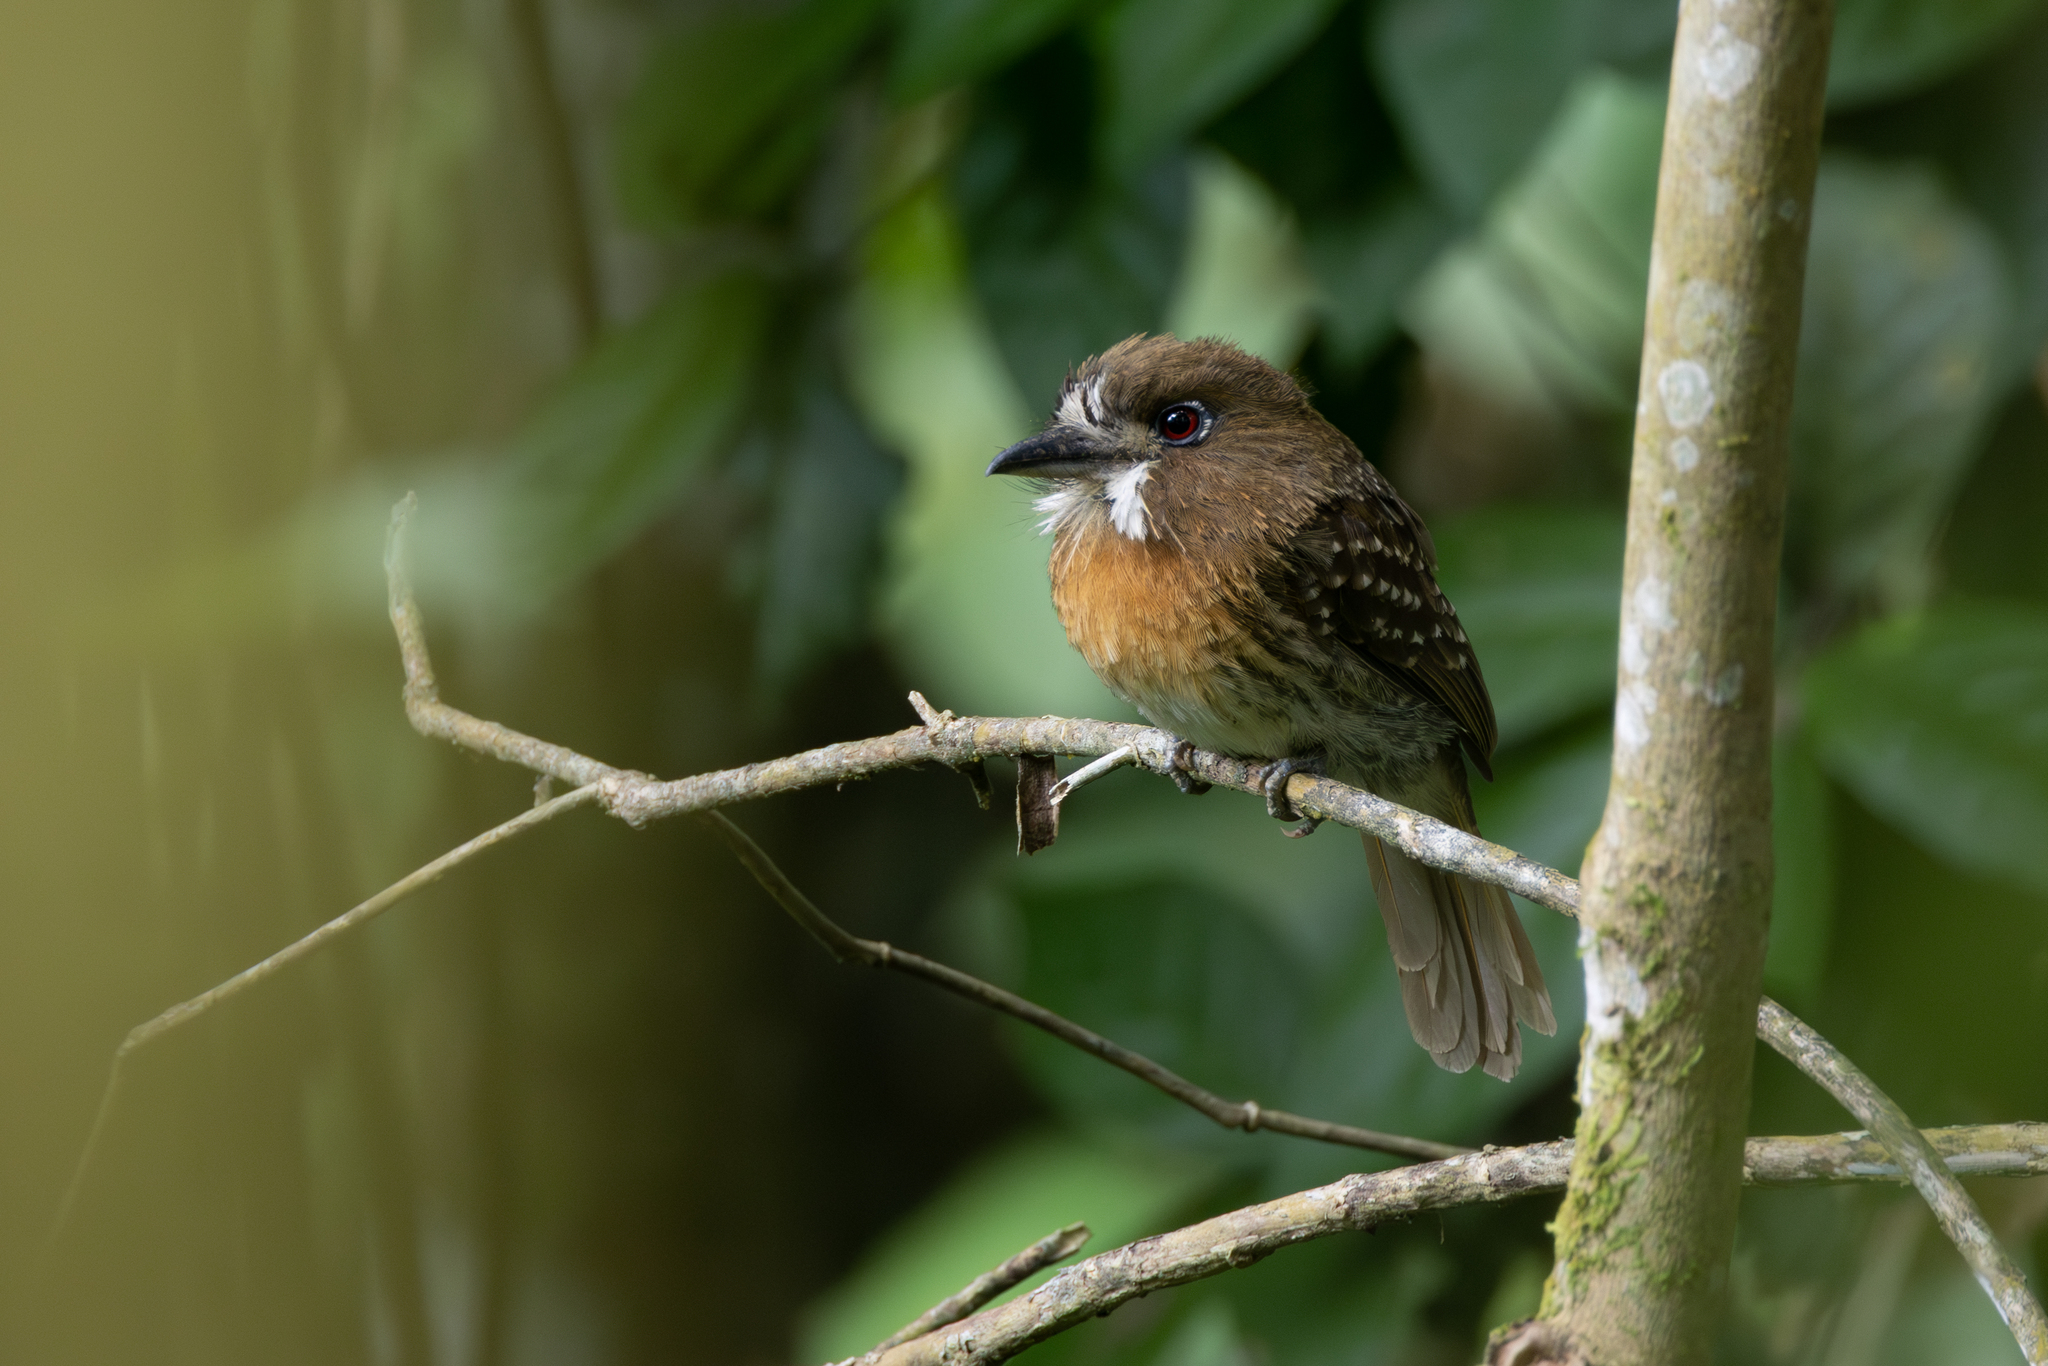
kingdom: Animalia
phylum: Chordata
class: Aves
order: Piciformes
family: Bucconidae
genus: Malacoptila
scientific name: Malacoptila mystacalis
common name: Moustached puffbird
